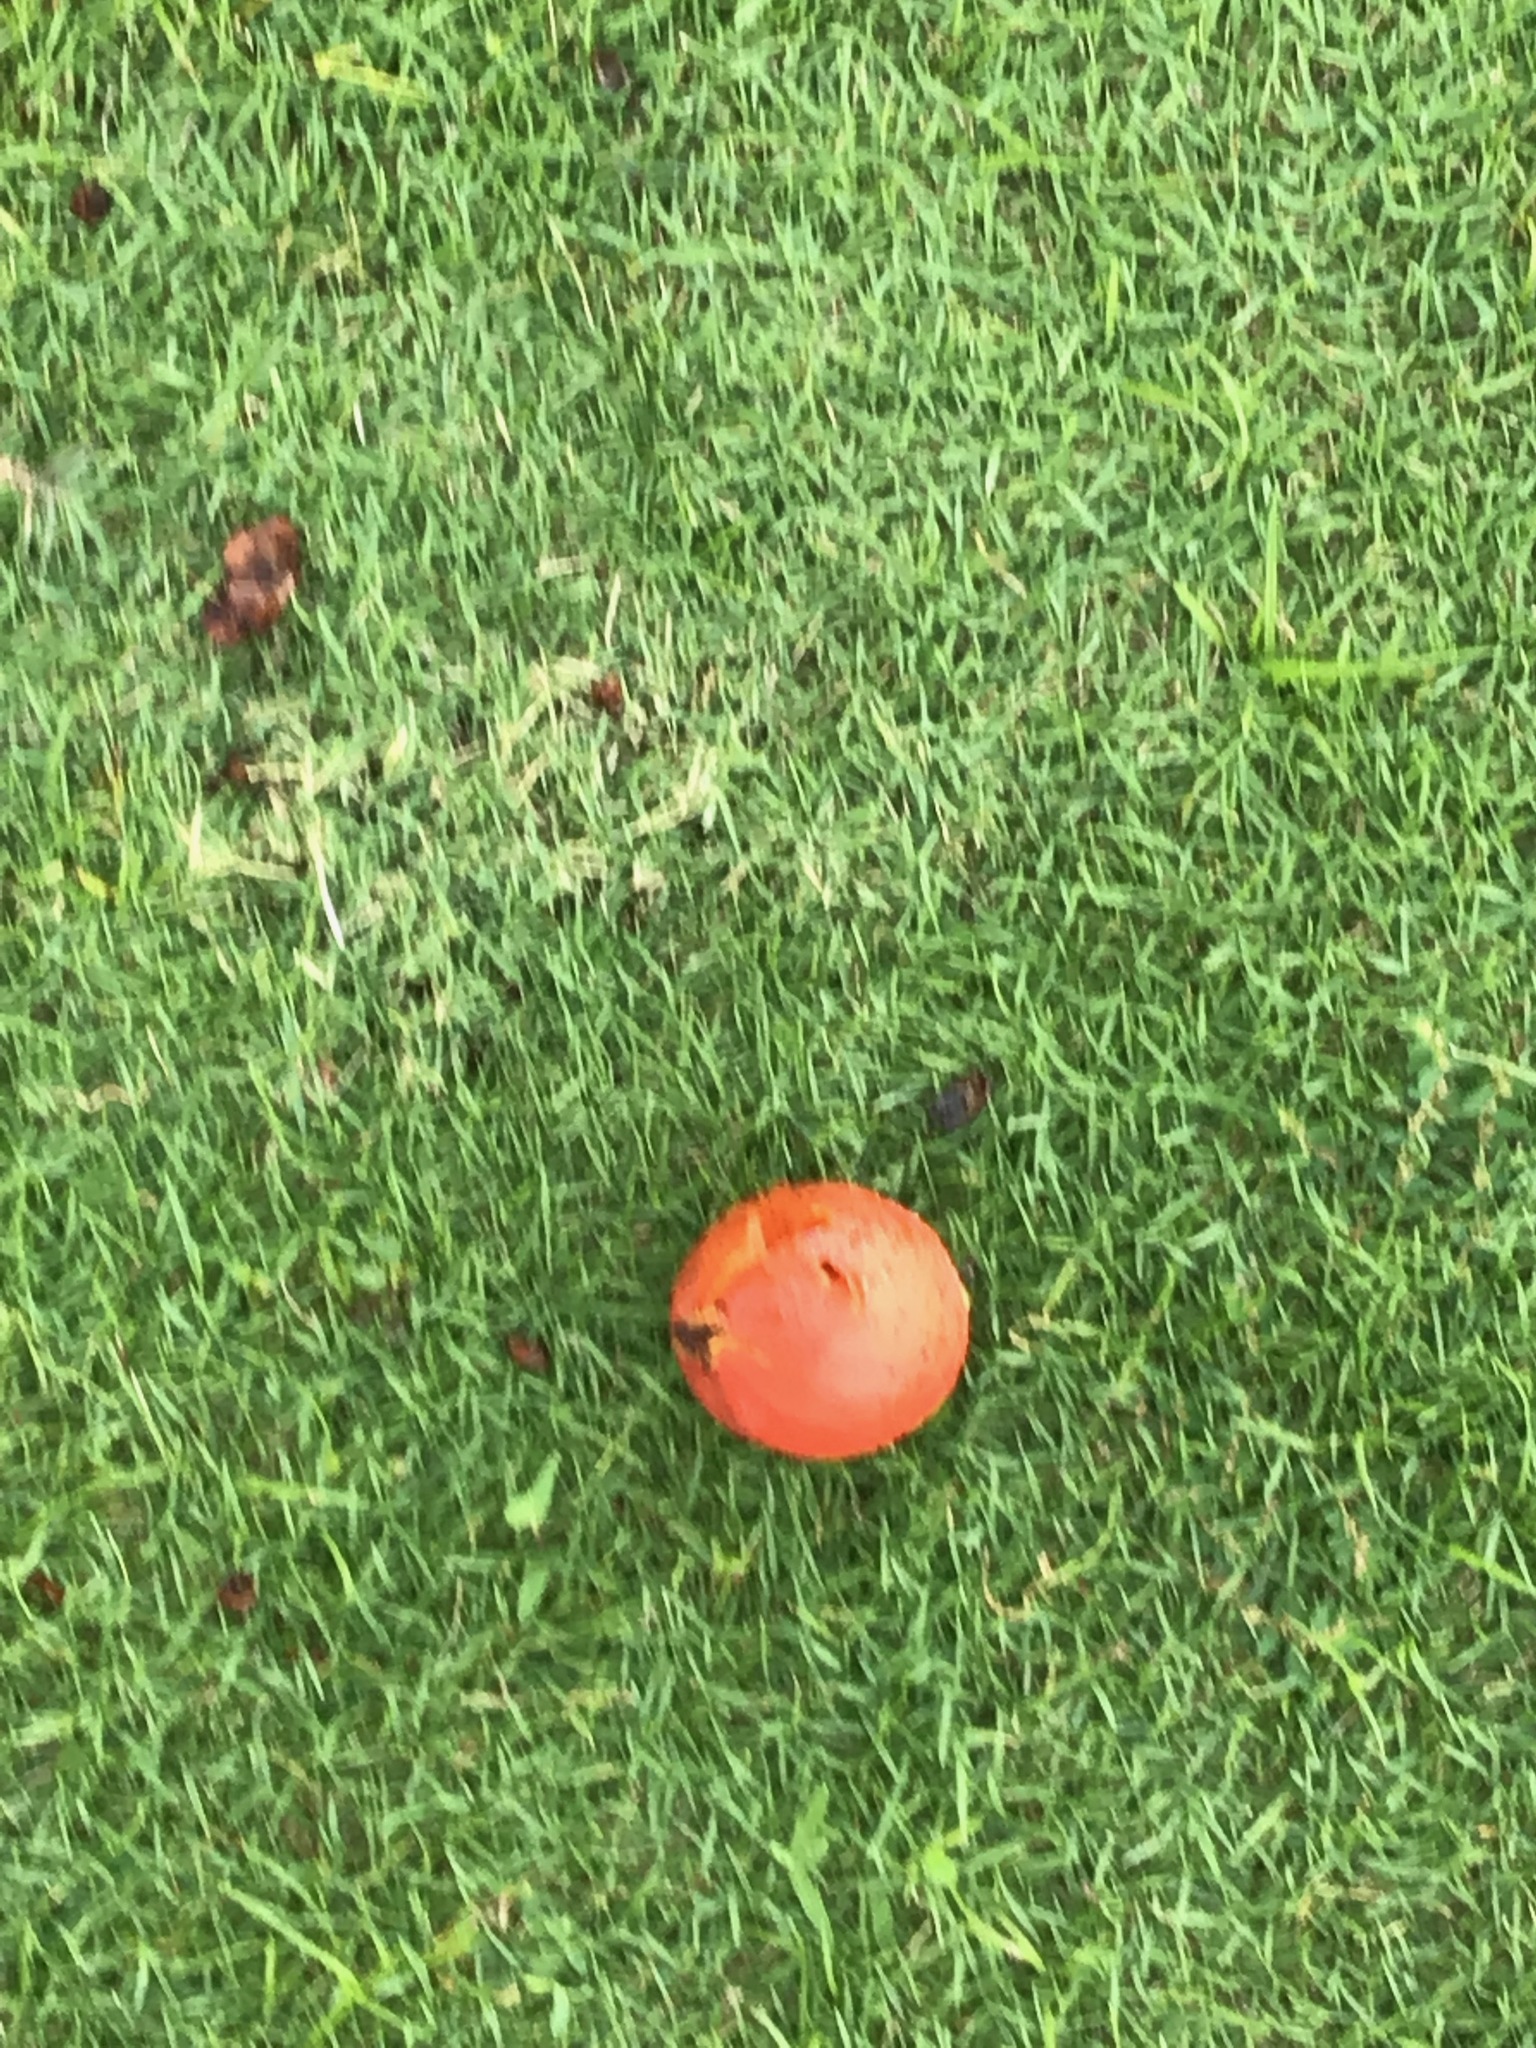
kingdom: Plantae
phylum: Tracheophyta
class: Magnoliopsida
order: Solanales
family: Solanaceae
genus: Solanum
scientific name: Solanum lycopersicum
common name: Garden tomato
